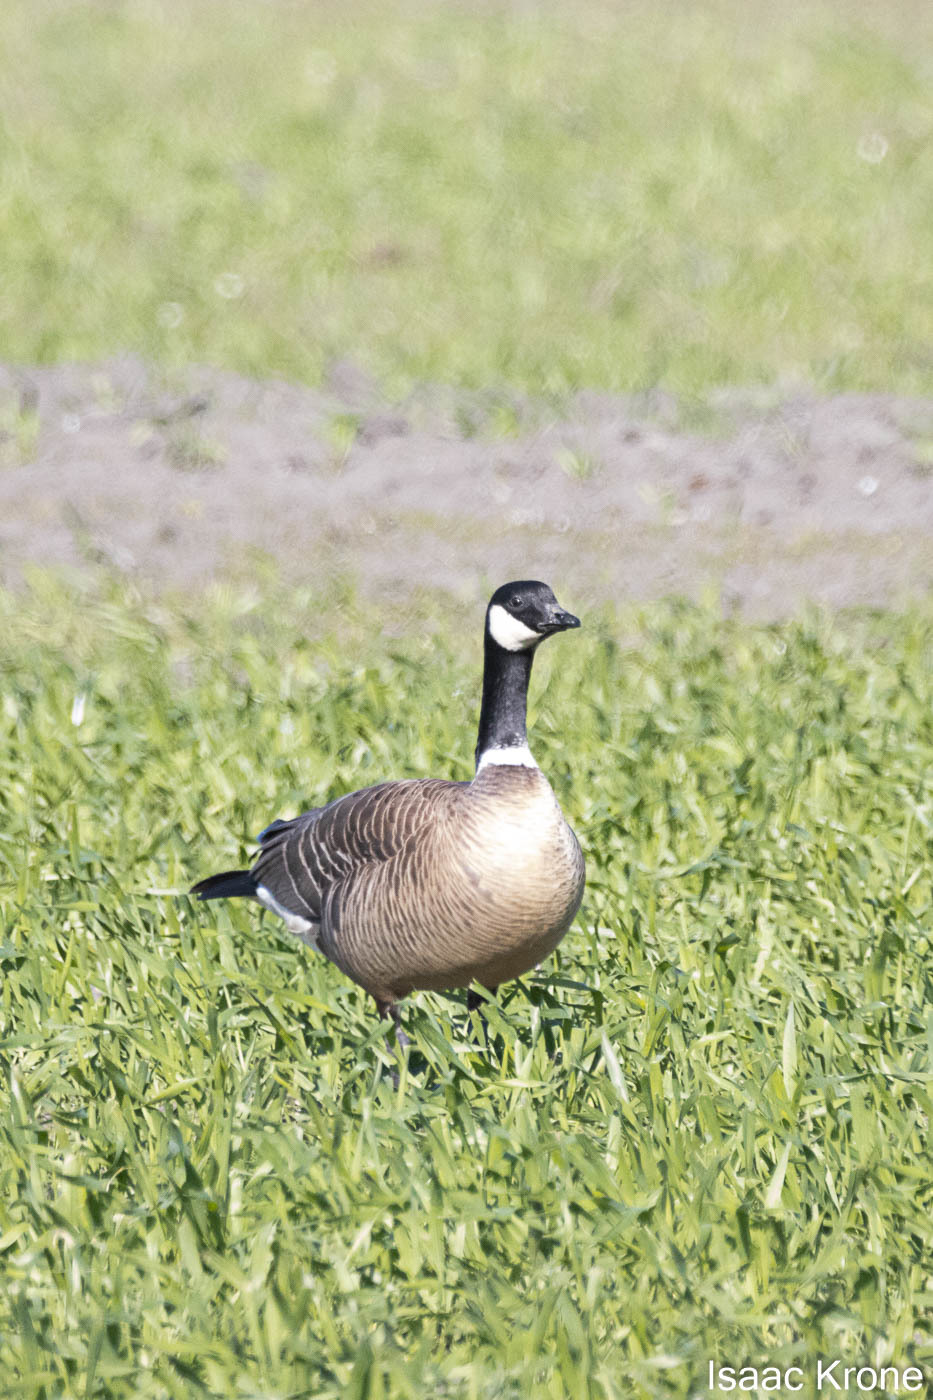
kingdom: Animalia
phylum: Chordata
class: Aves
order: Anseriformes
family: Anatidae
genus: Branta
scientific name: Branta hutchinsii
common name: Cackling goose
